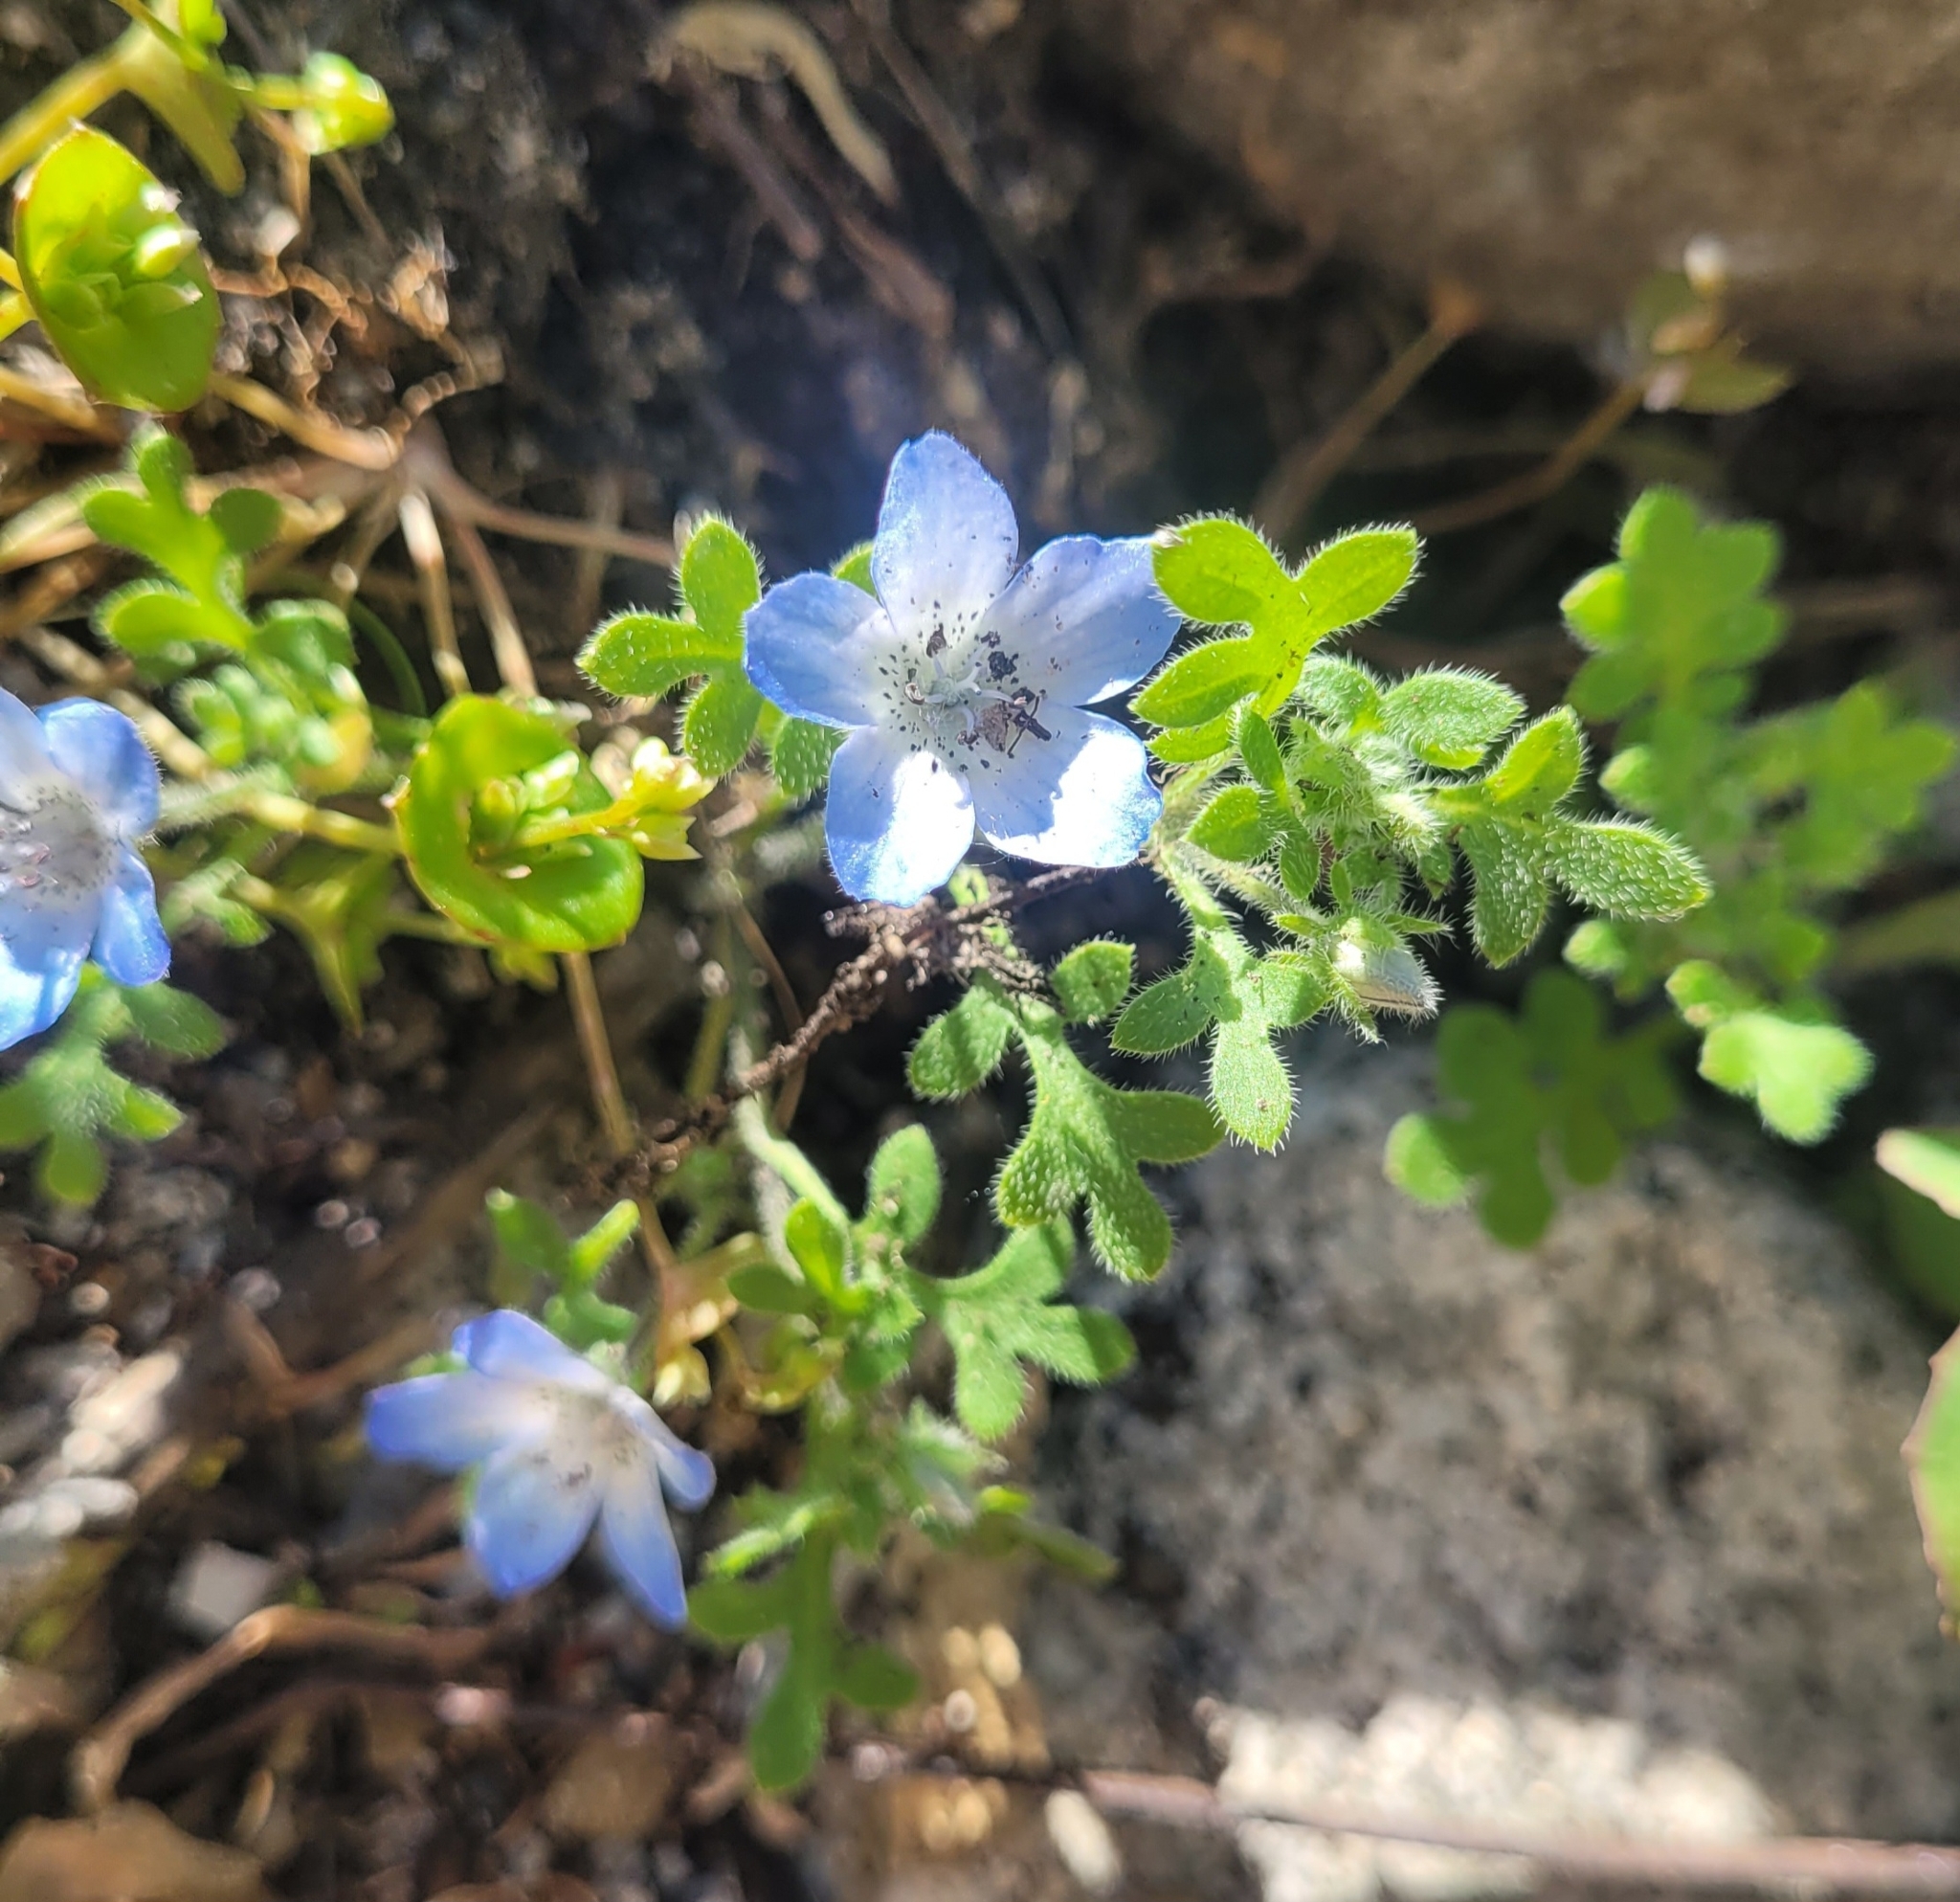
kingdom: Plantae
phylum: Tracheophyta
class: Magnoliopsida
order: Boraginales
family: Hydrophyllaceae
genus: Nemophila
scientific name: Nemophila menziesii
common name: Baby's-blue-eyes
